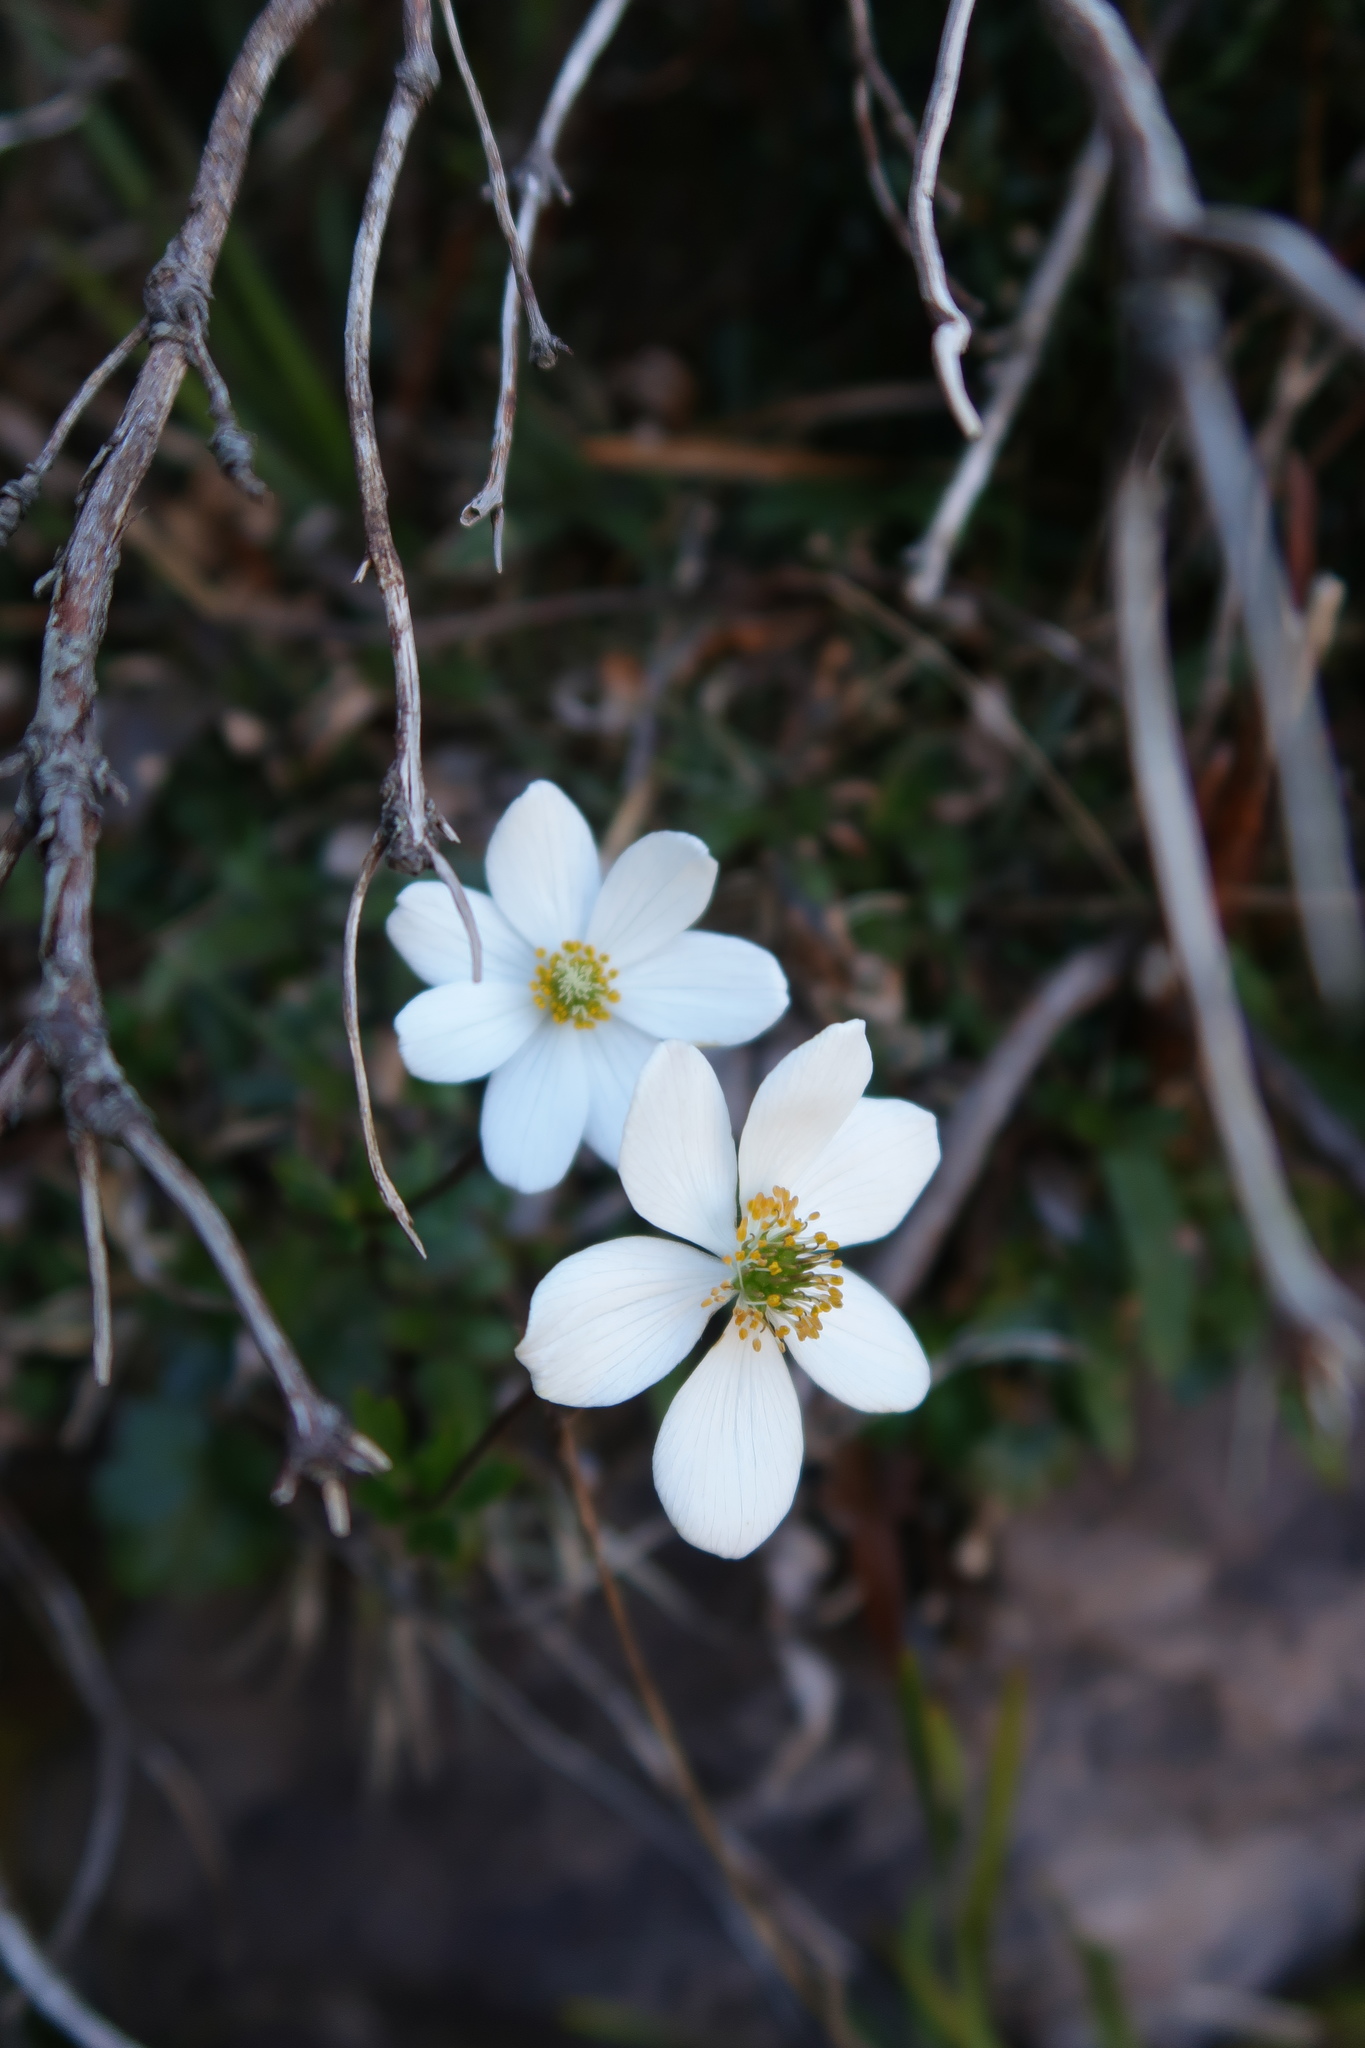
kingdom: Plantae
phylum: Tracheophyta
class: Magnoliopsida
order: Ranunculales
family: Ranunculaceae
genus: Knowltonia
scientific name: Knowltonia crassifolia
